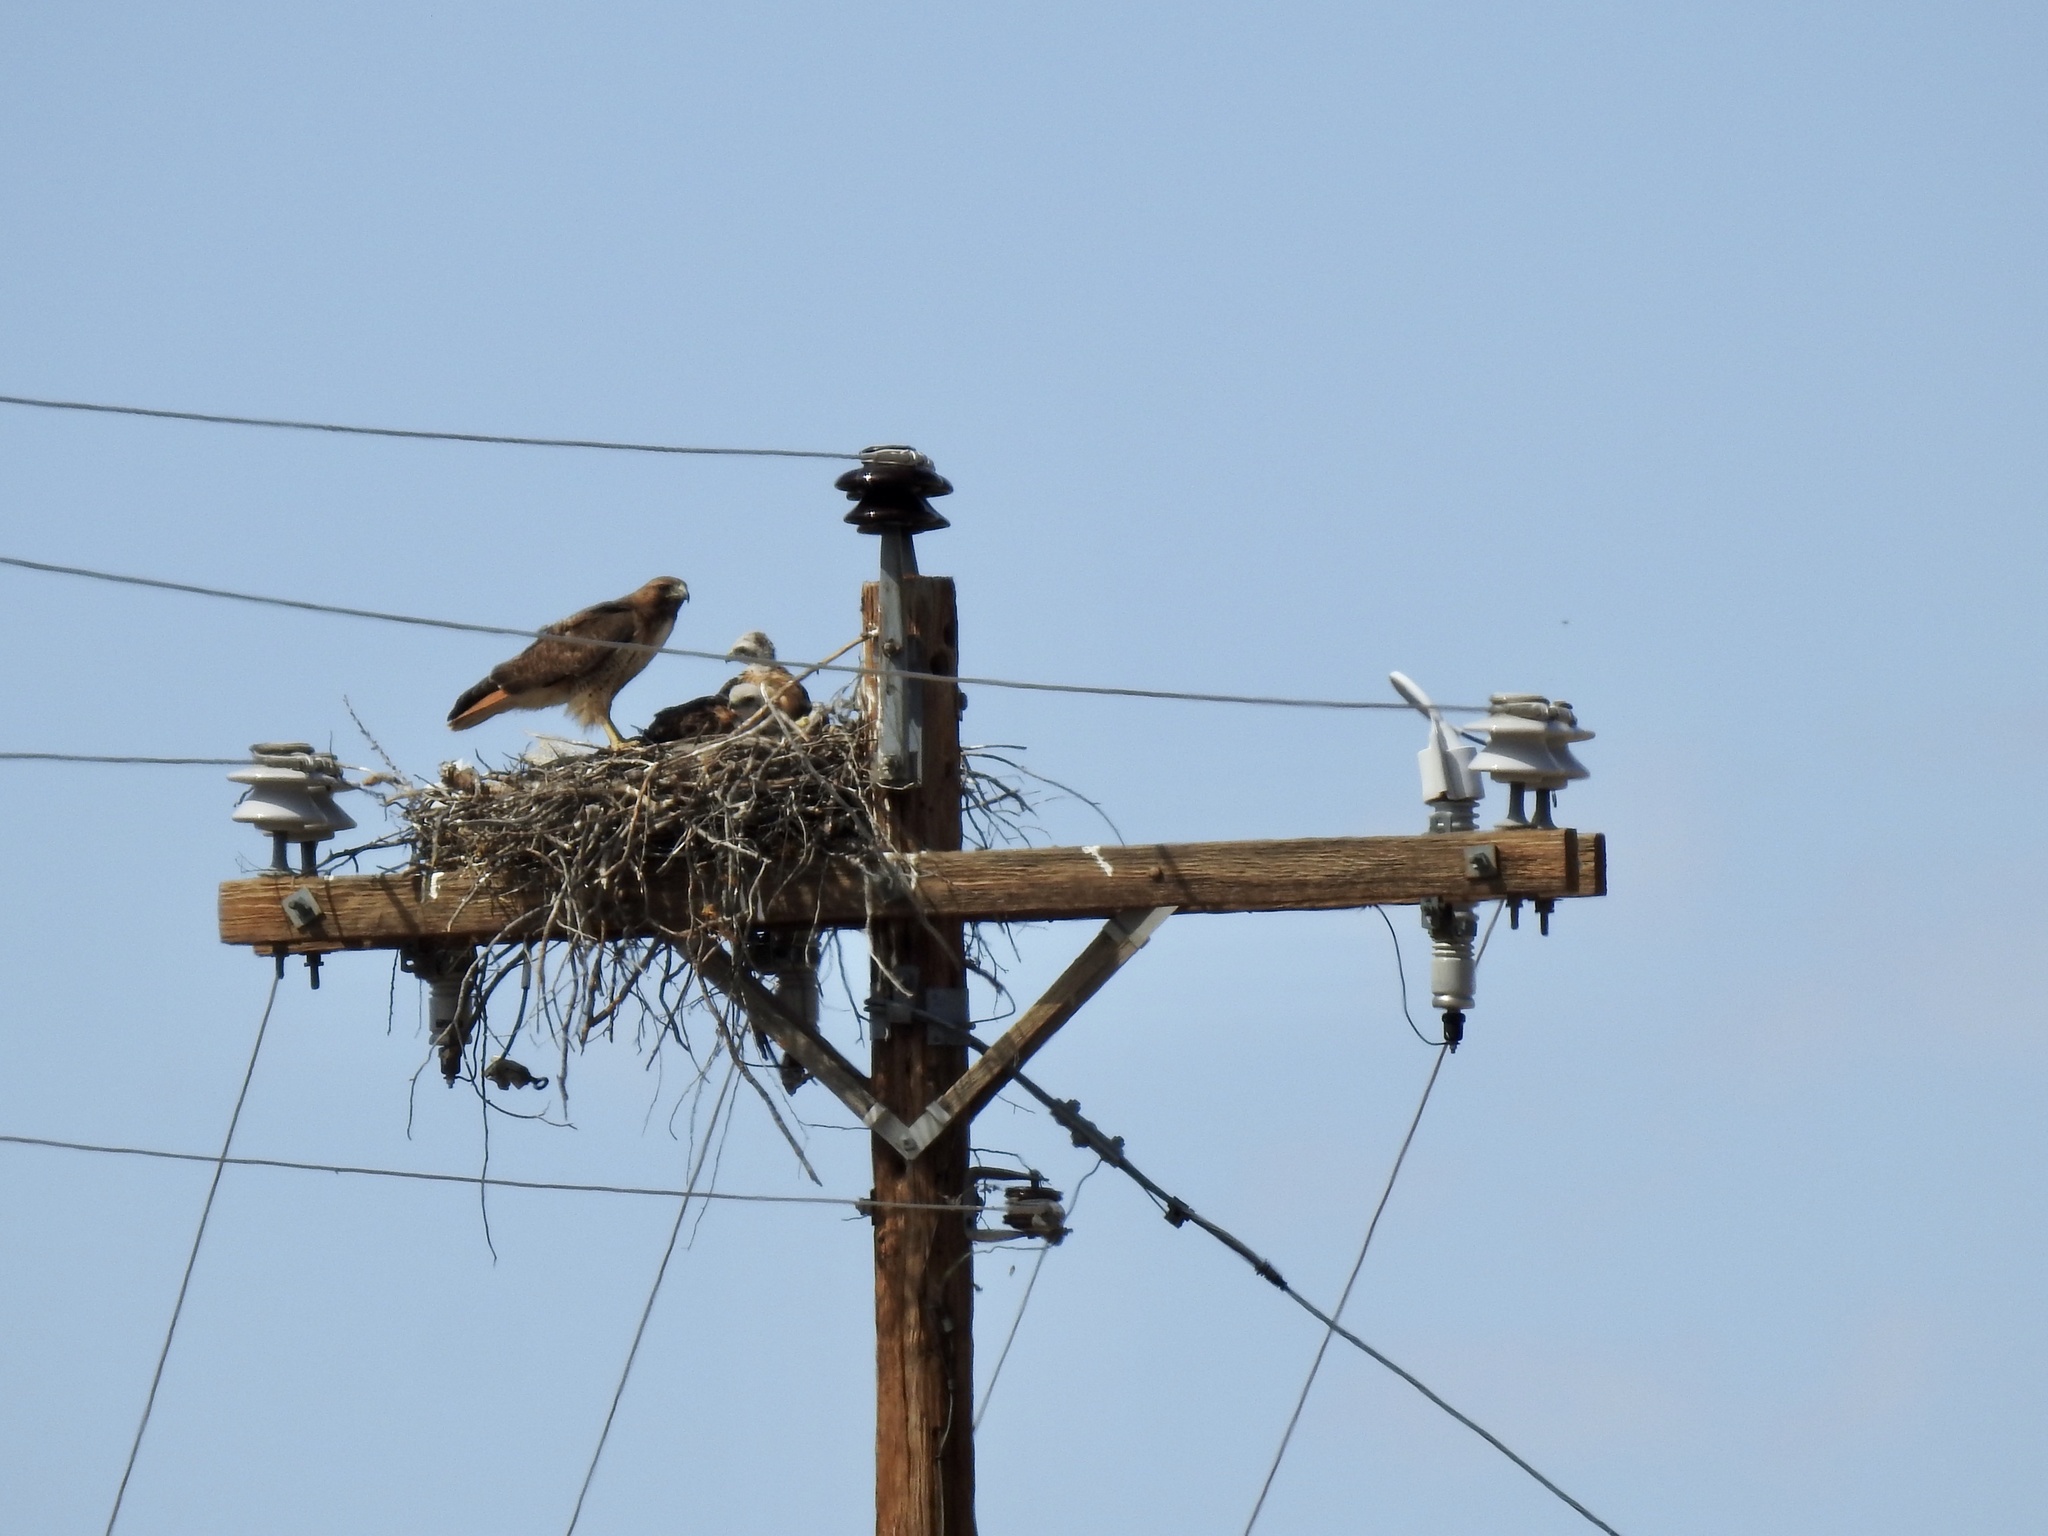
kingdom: Animalia
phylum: Chordata
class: Aves
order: Accipitriformes
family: Accipitridae
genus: Buteo
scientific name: Buteo jamaicensis
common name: Red-tailed hawk
